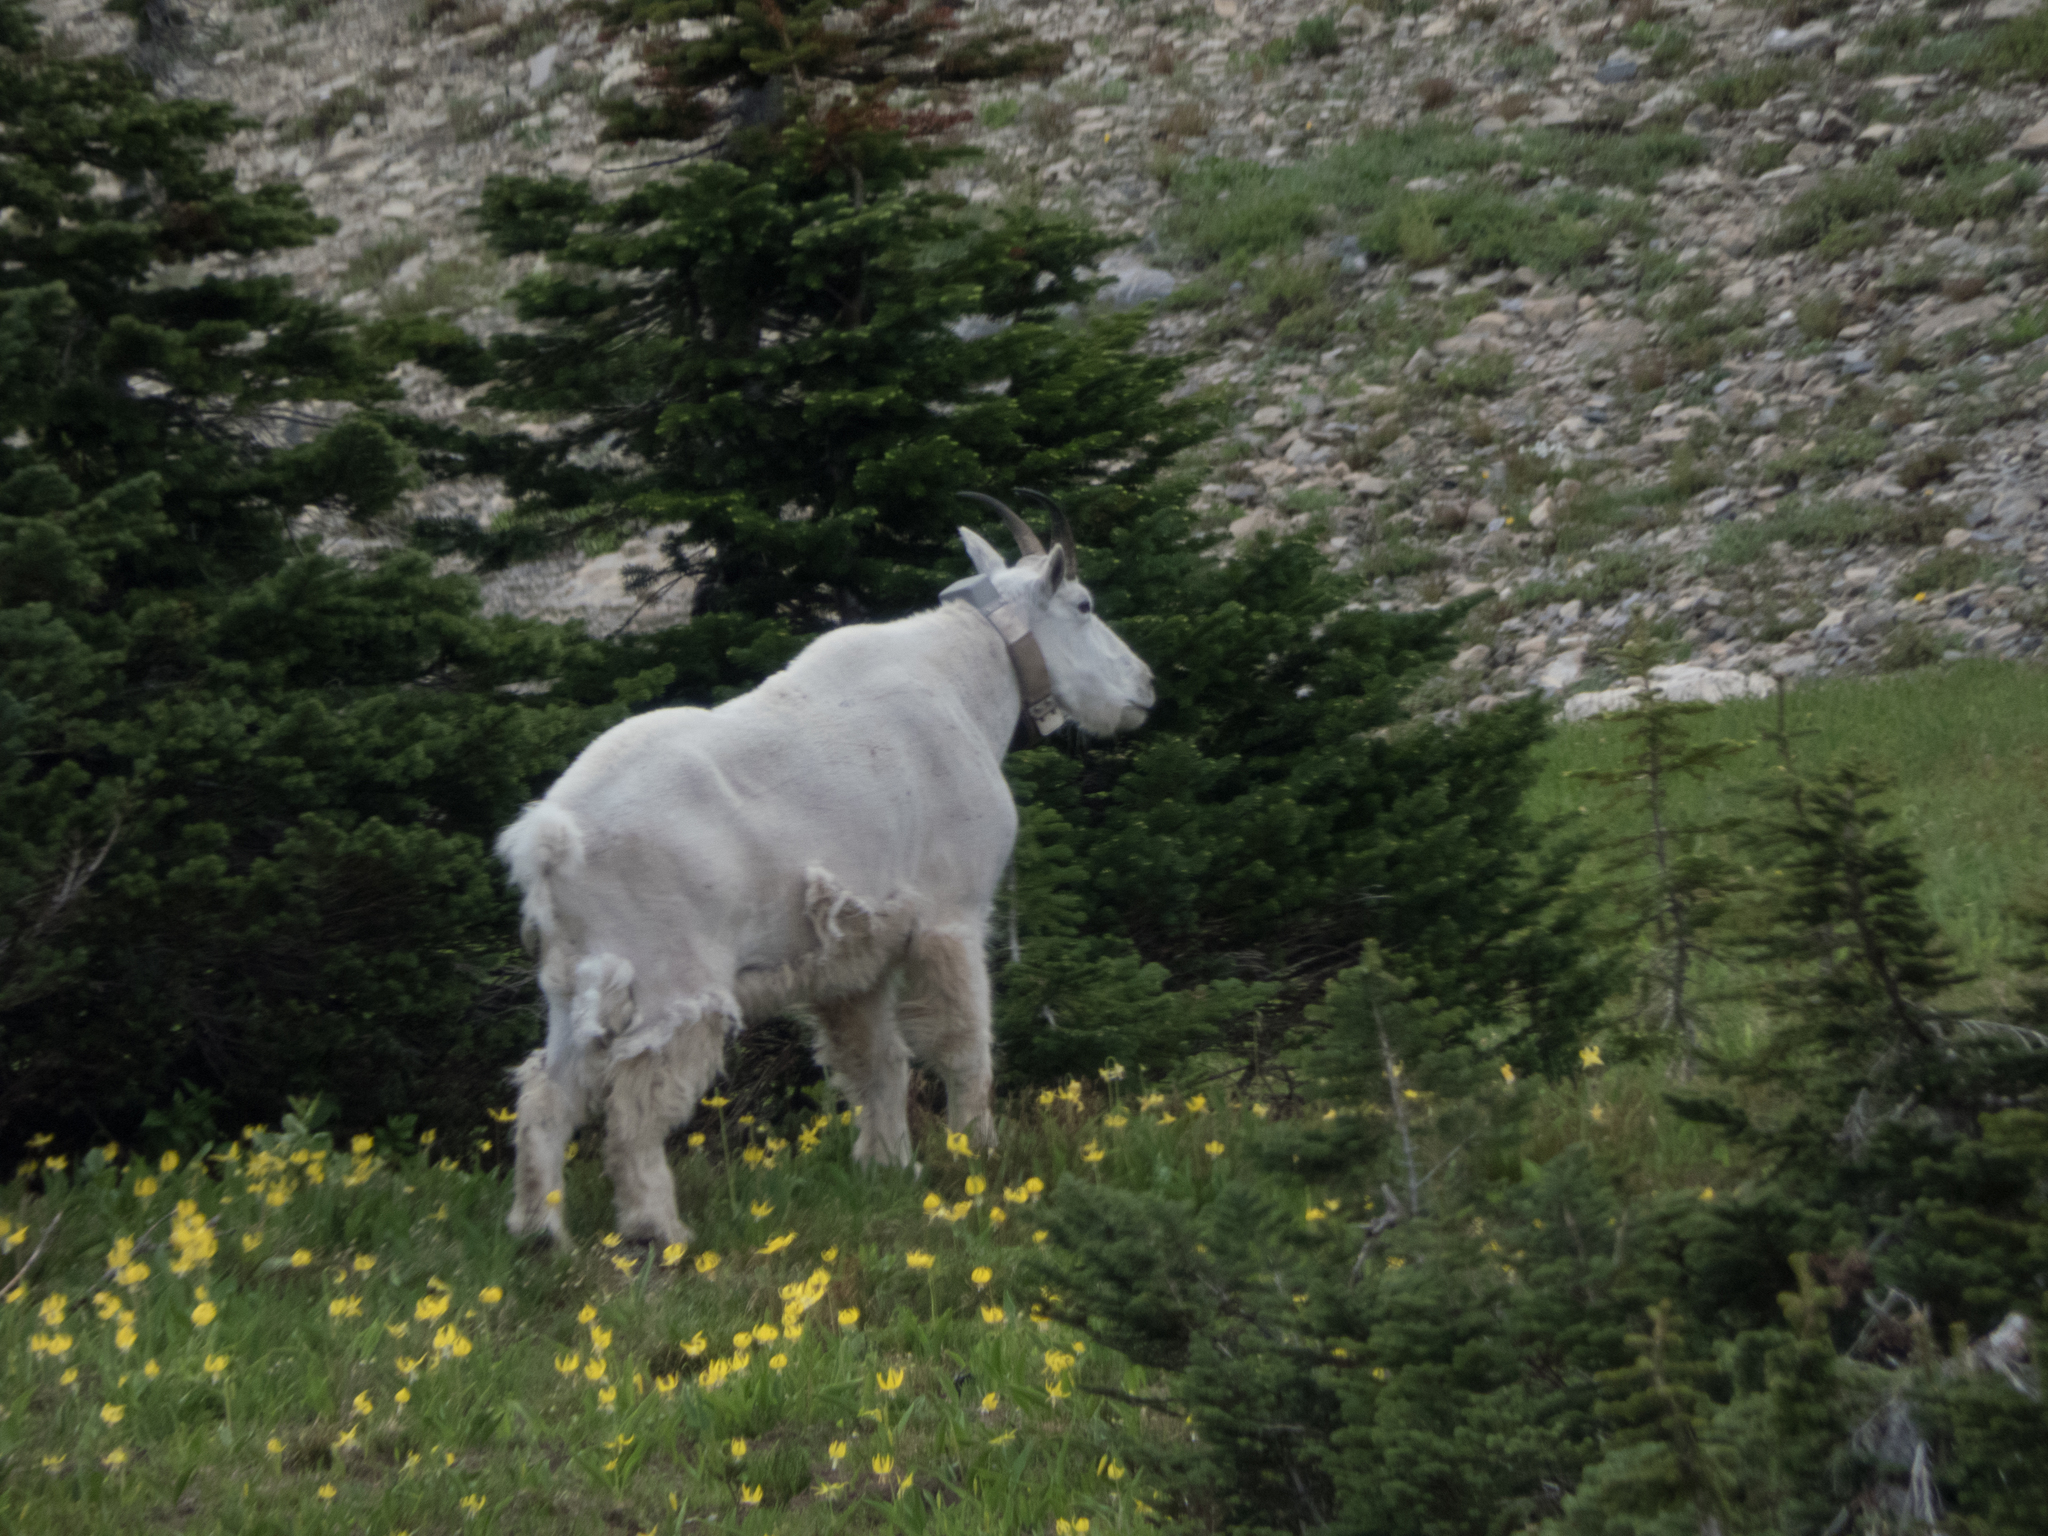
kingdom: Animalia
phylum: Chordata
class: Mammalia
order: Artiodactyla
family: Bovidae
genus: Oreamnos
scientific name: Oreamnos americanus
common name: Mountain goat
